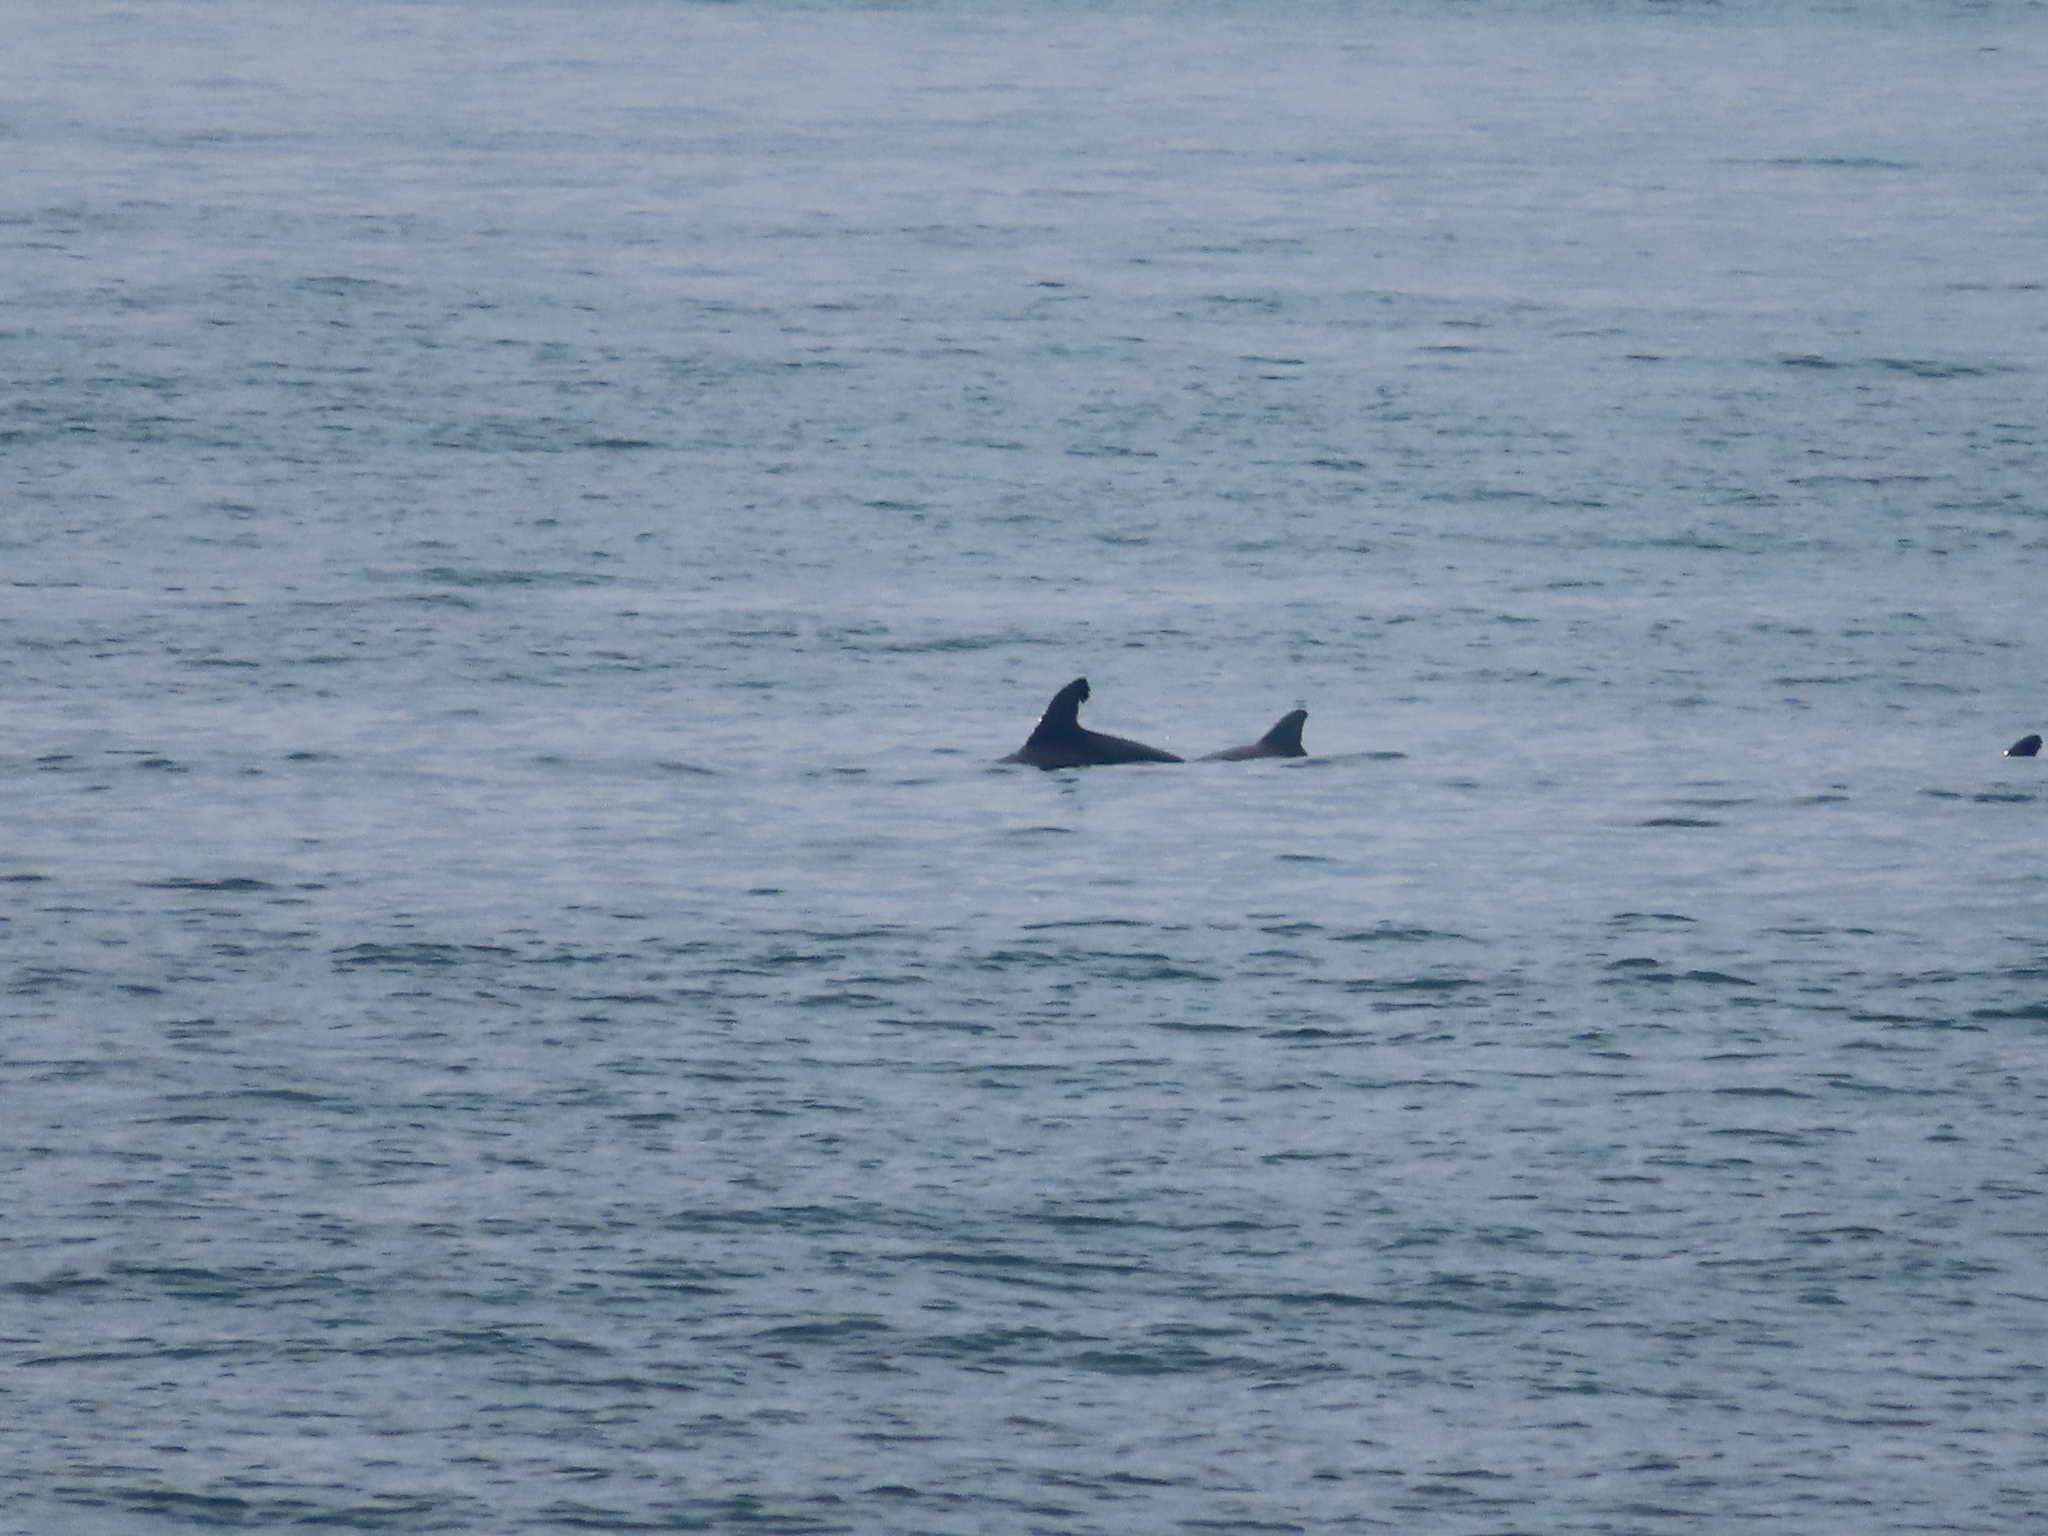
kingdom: Animalia
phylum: Chordata
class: Mammalia
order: Cetacea
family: Delphinidae
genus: Tursiops
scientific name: Tursiops truncatus
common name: Bottlenose dolphin
